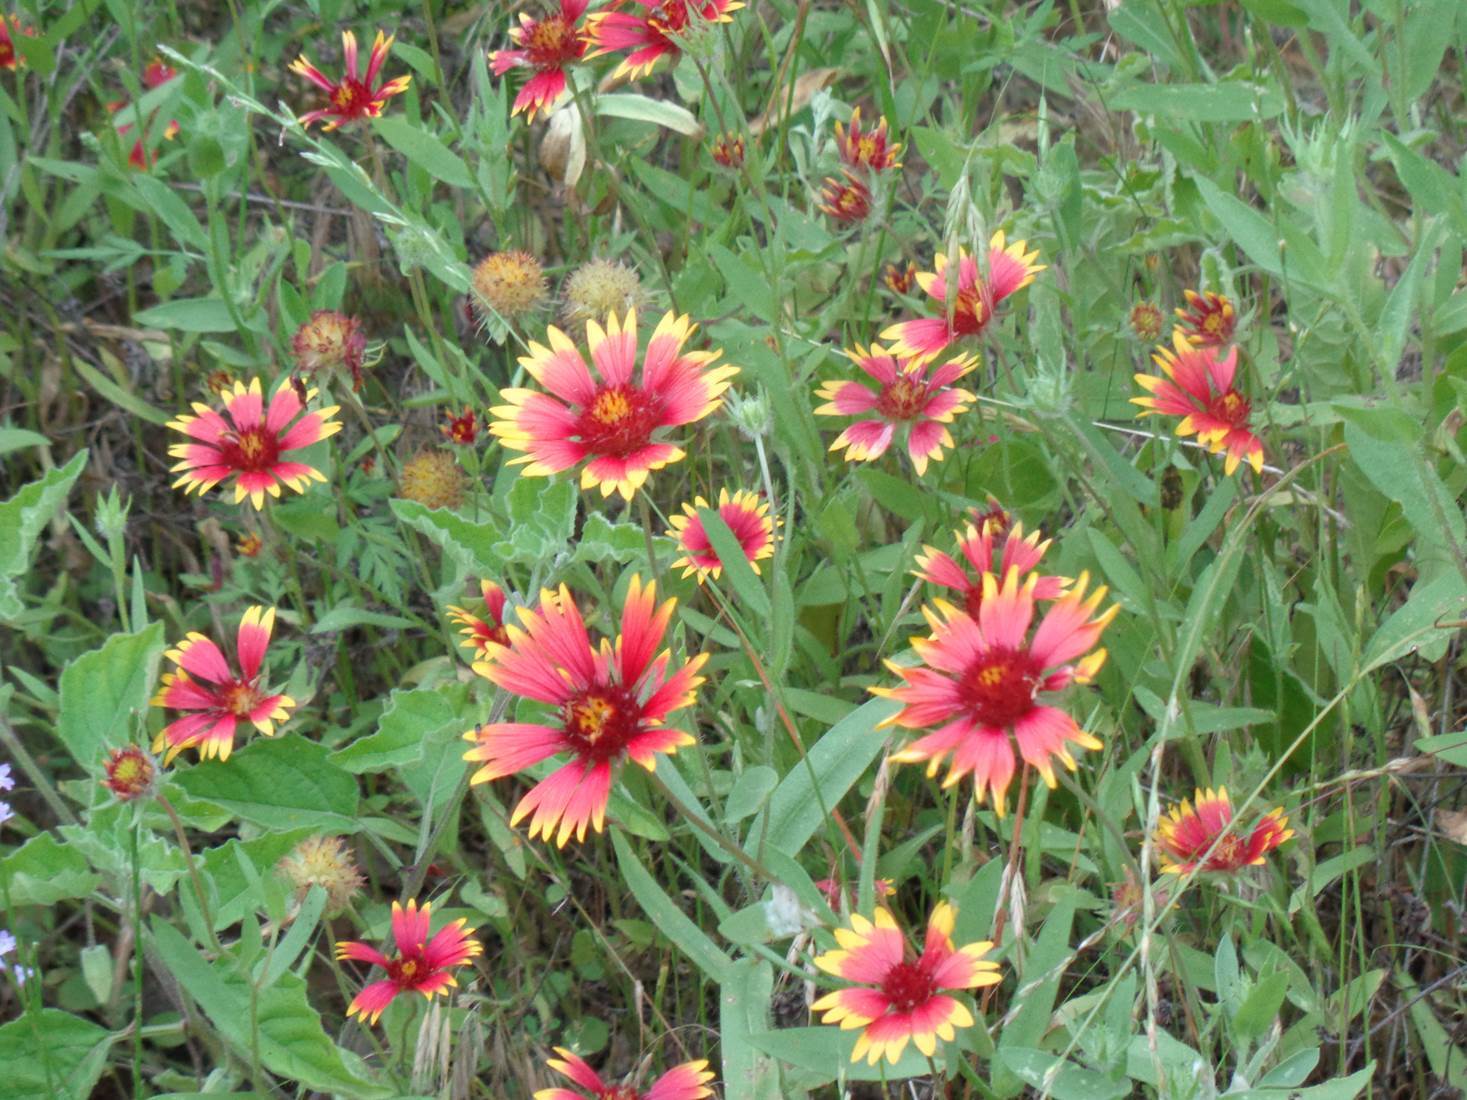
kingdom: Plantae
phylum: Tracheophyta
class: Magnoliopsida
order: Asterales
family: Asteraceae
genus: Gaillardia
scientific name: Gaillardia pulchella
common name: Firewheel
